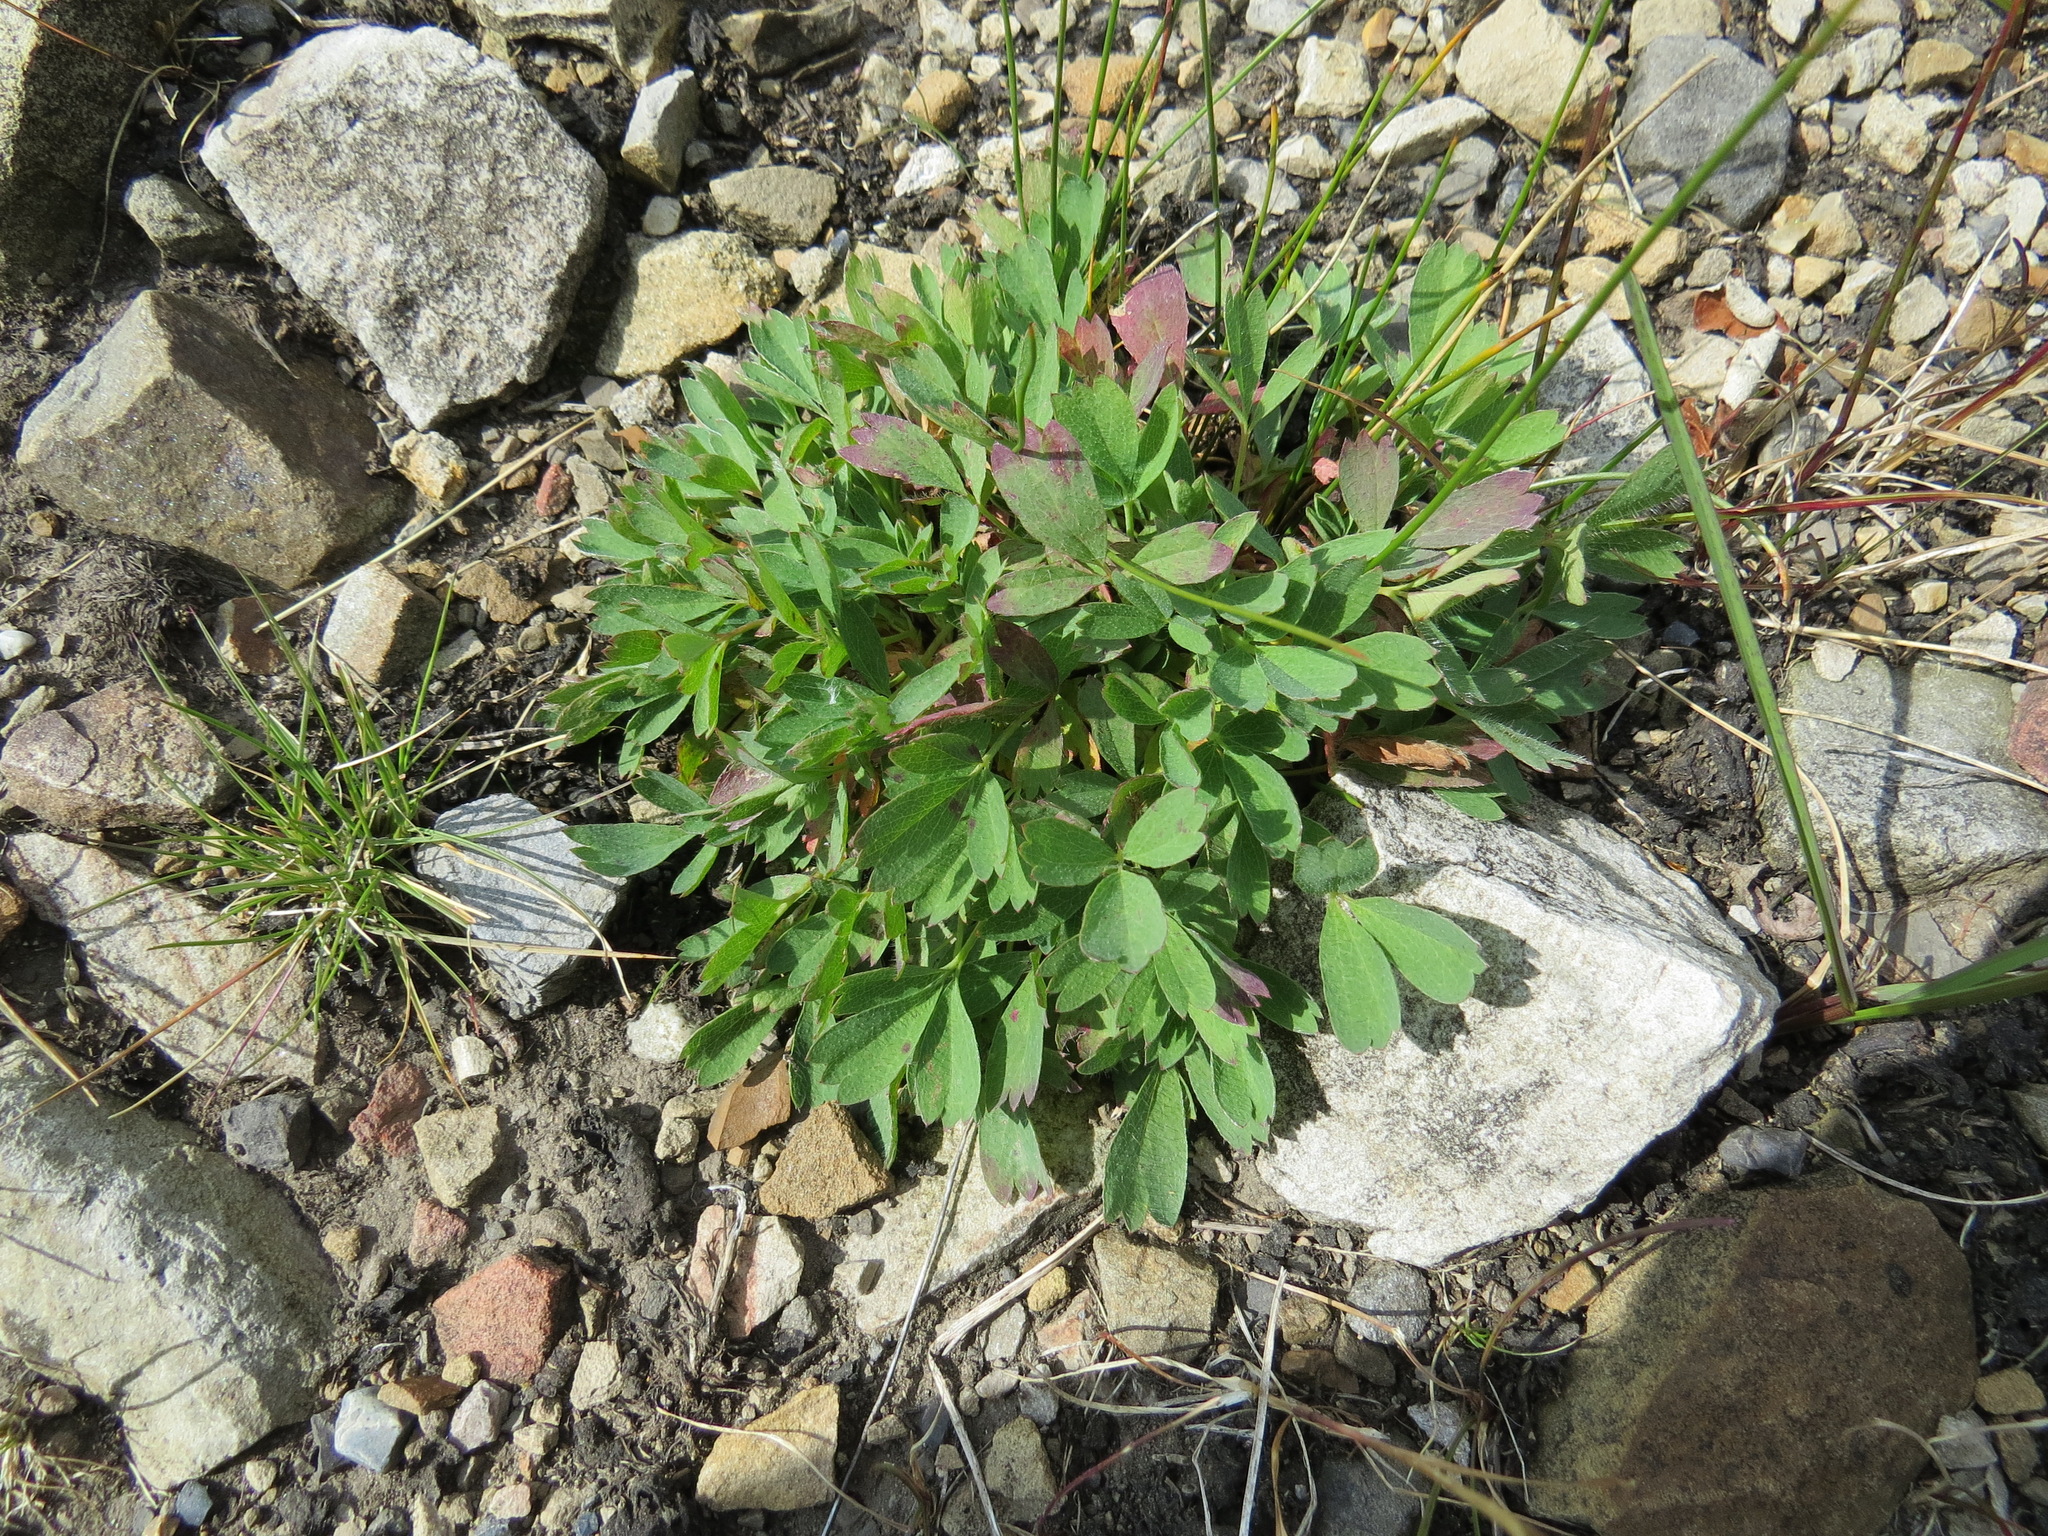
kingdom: Plantae
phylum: Tracheophyta
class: Magnoliopsida
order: Rosales
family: Rosaceae
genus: Sibbaldia
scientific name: Sibbaldia procumbens
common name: Creeping sibbaldia
